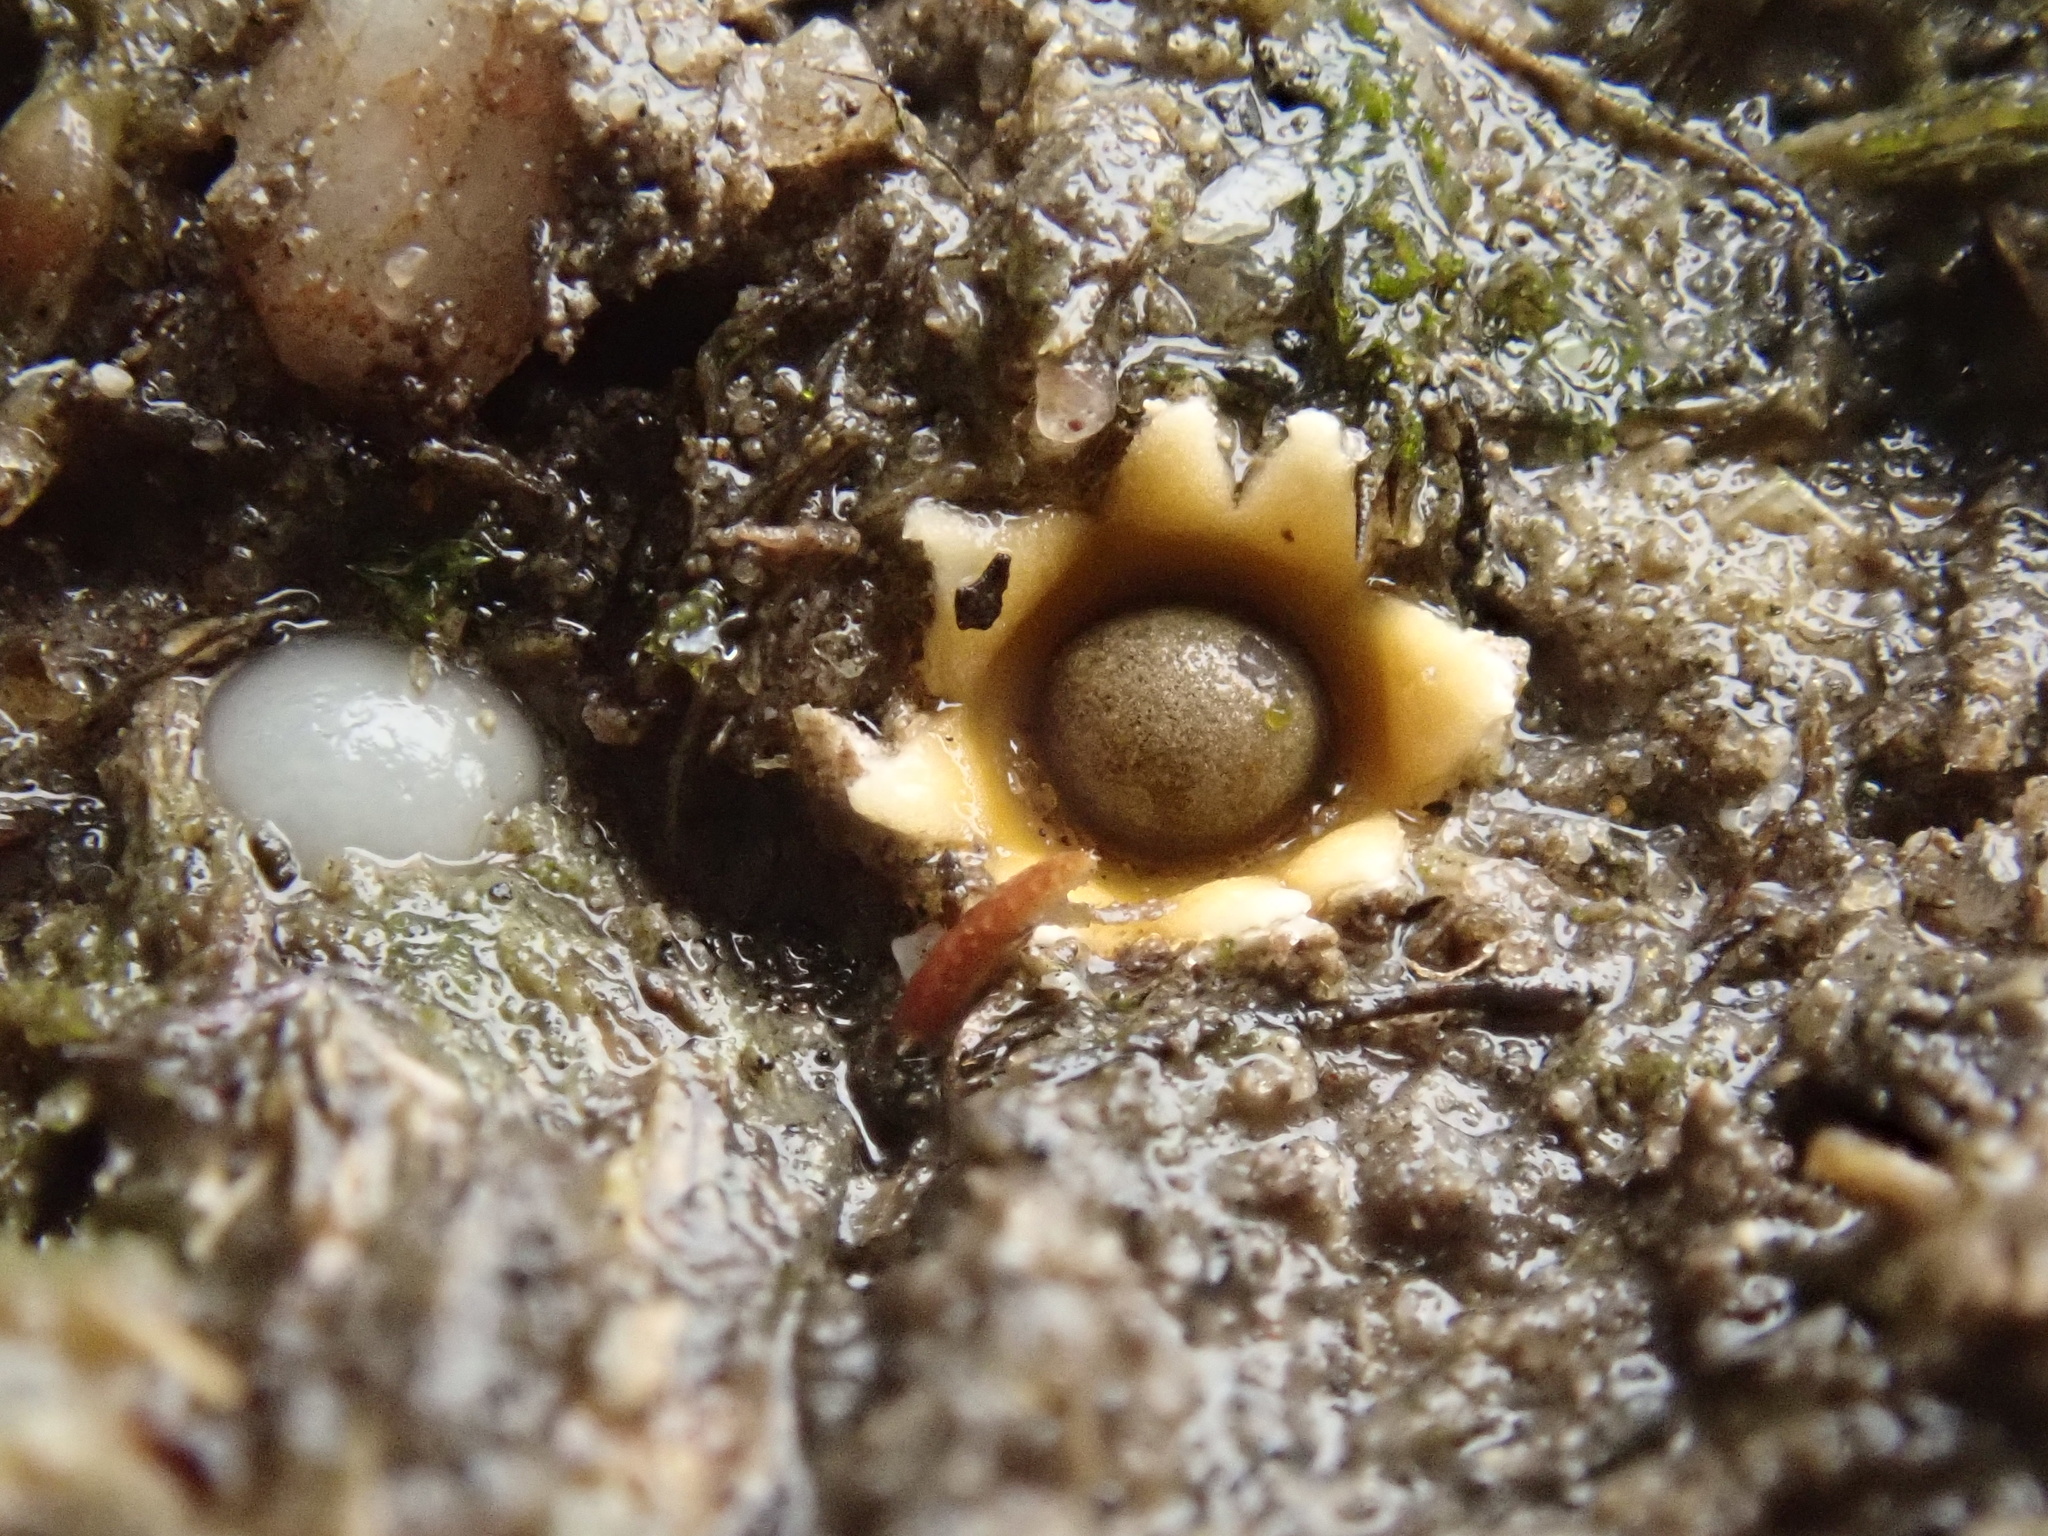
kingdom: Fungi
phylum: Basidiomycota
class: Agaricomycetes
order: Geastrales
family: Geastraceae
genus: Sphaerobolus
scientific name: Sphaerobolus stellatus
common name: Cannon fungus
